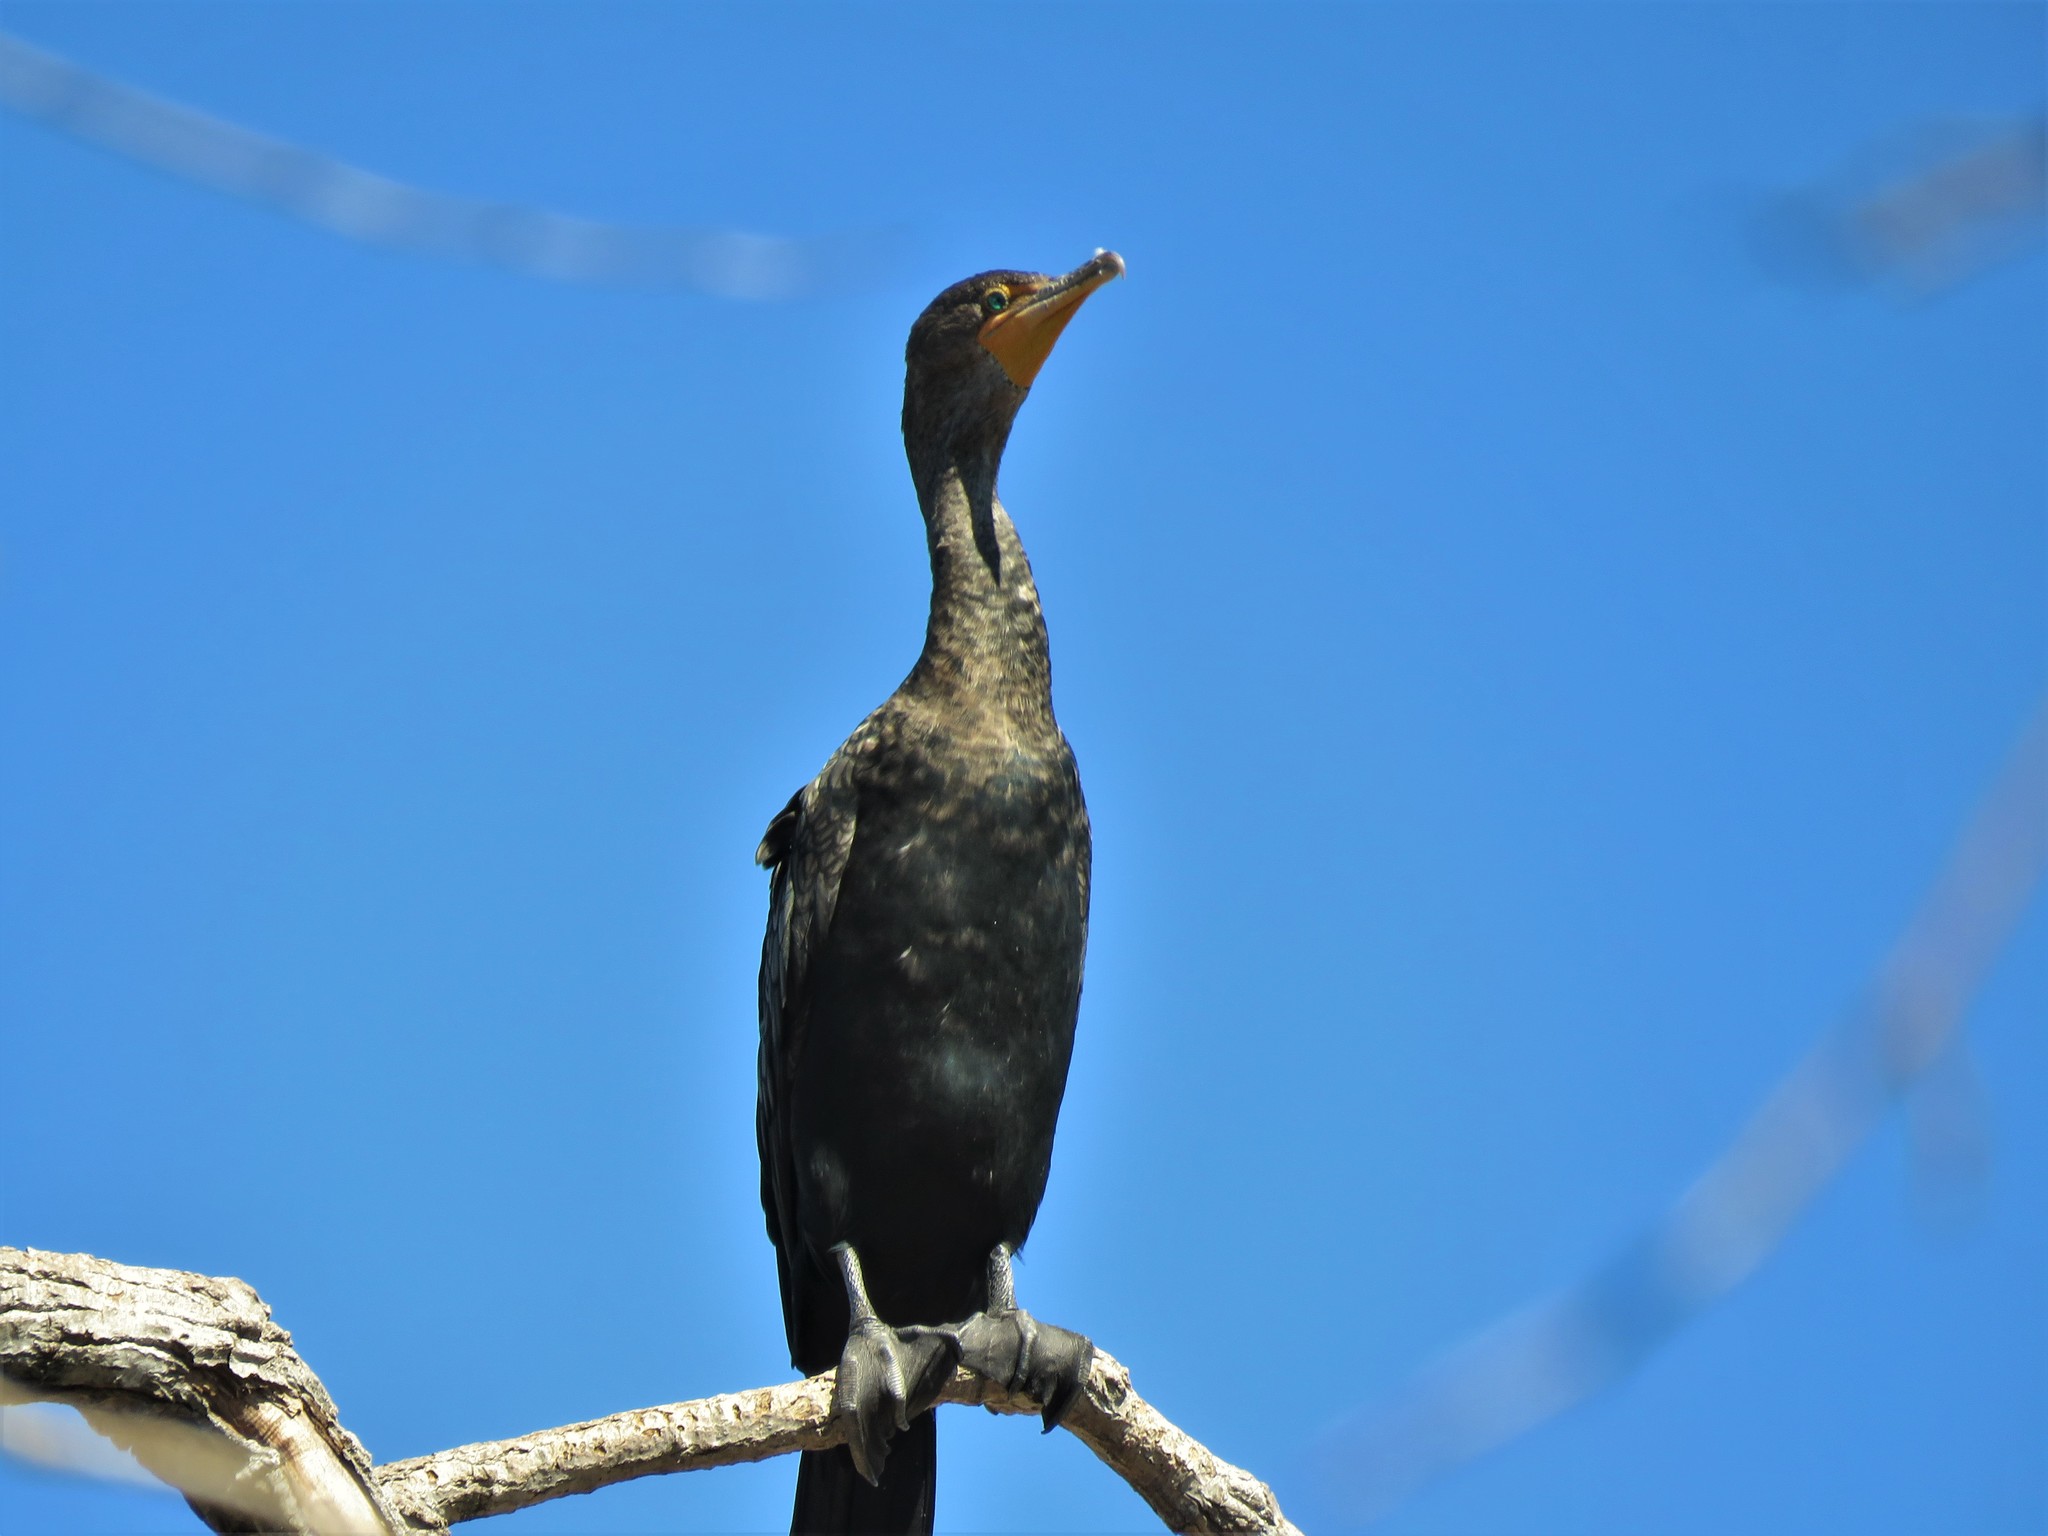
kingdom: Animalia
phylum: Chordata
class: Aves
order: Suliformes
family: Phalacrocoracidae
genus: Phalacrocorax
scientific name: Phalacrocorax auritus
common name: Double-crested cormorant
